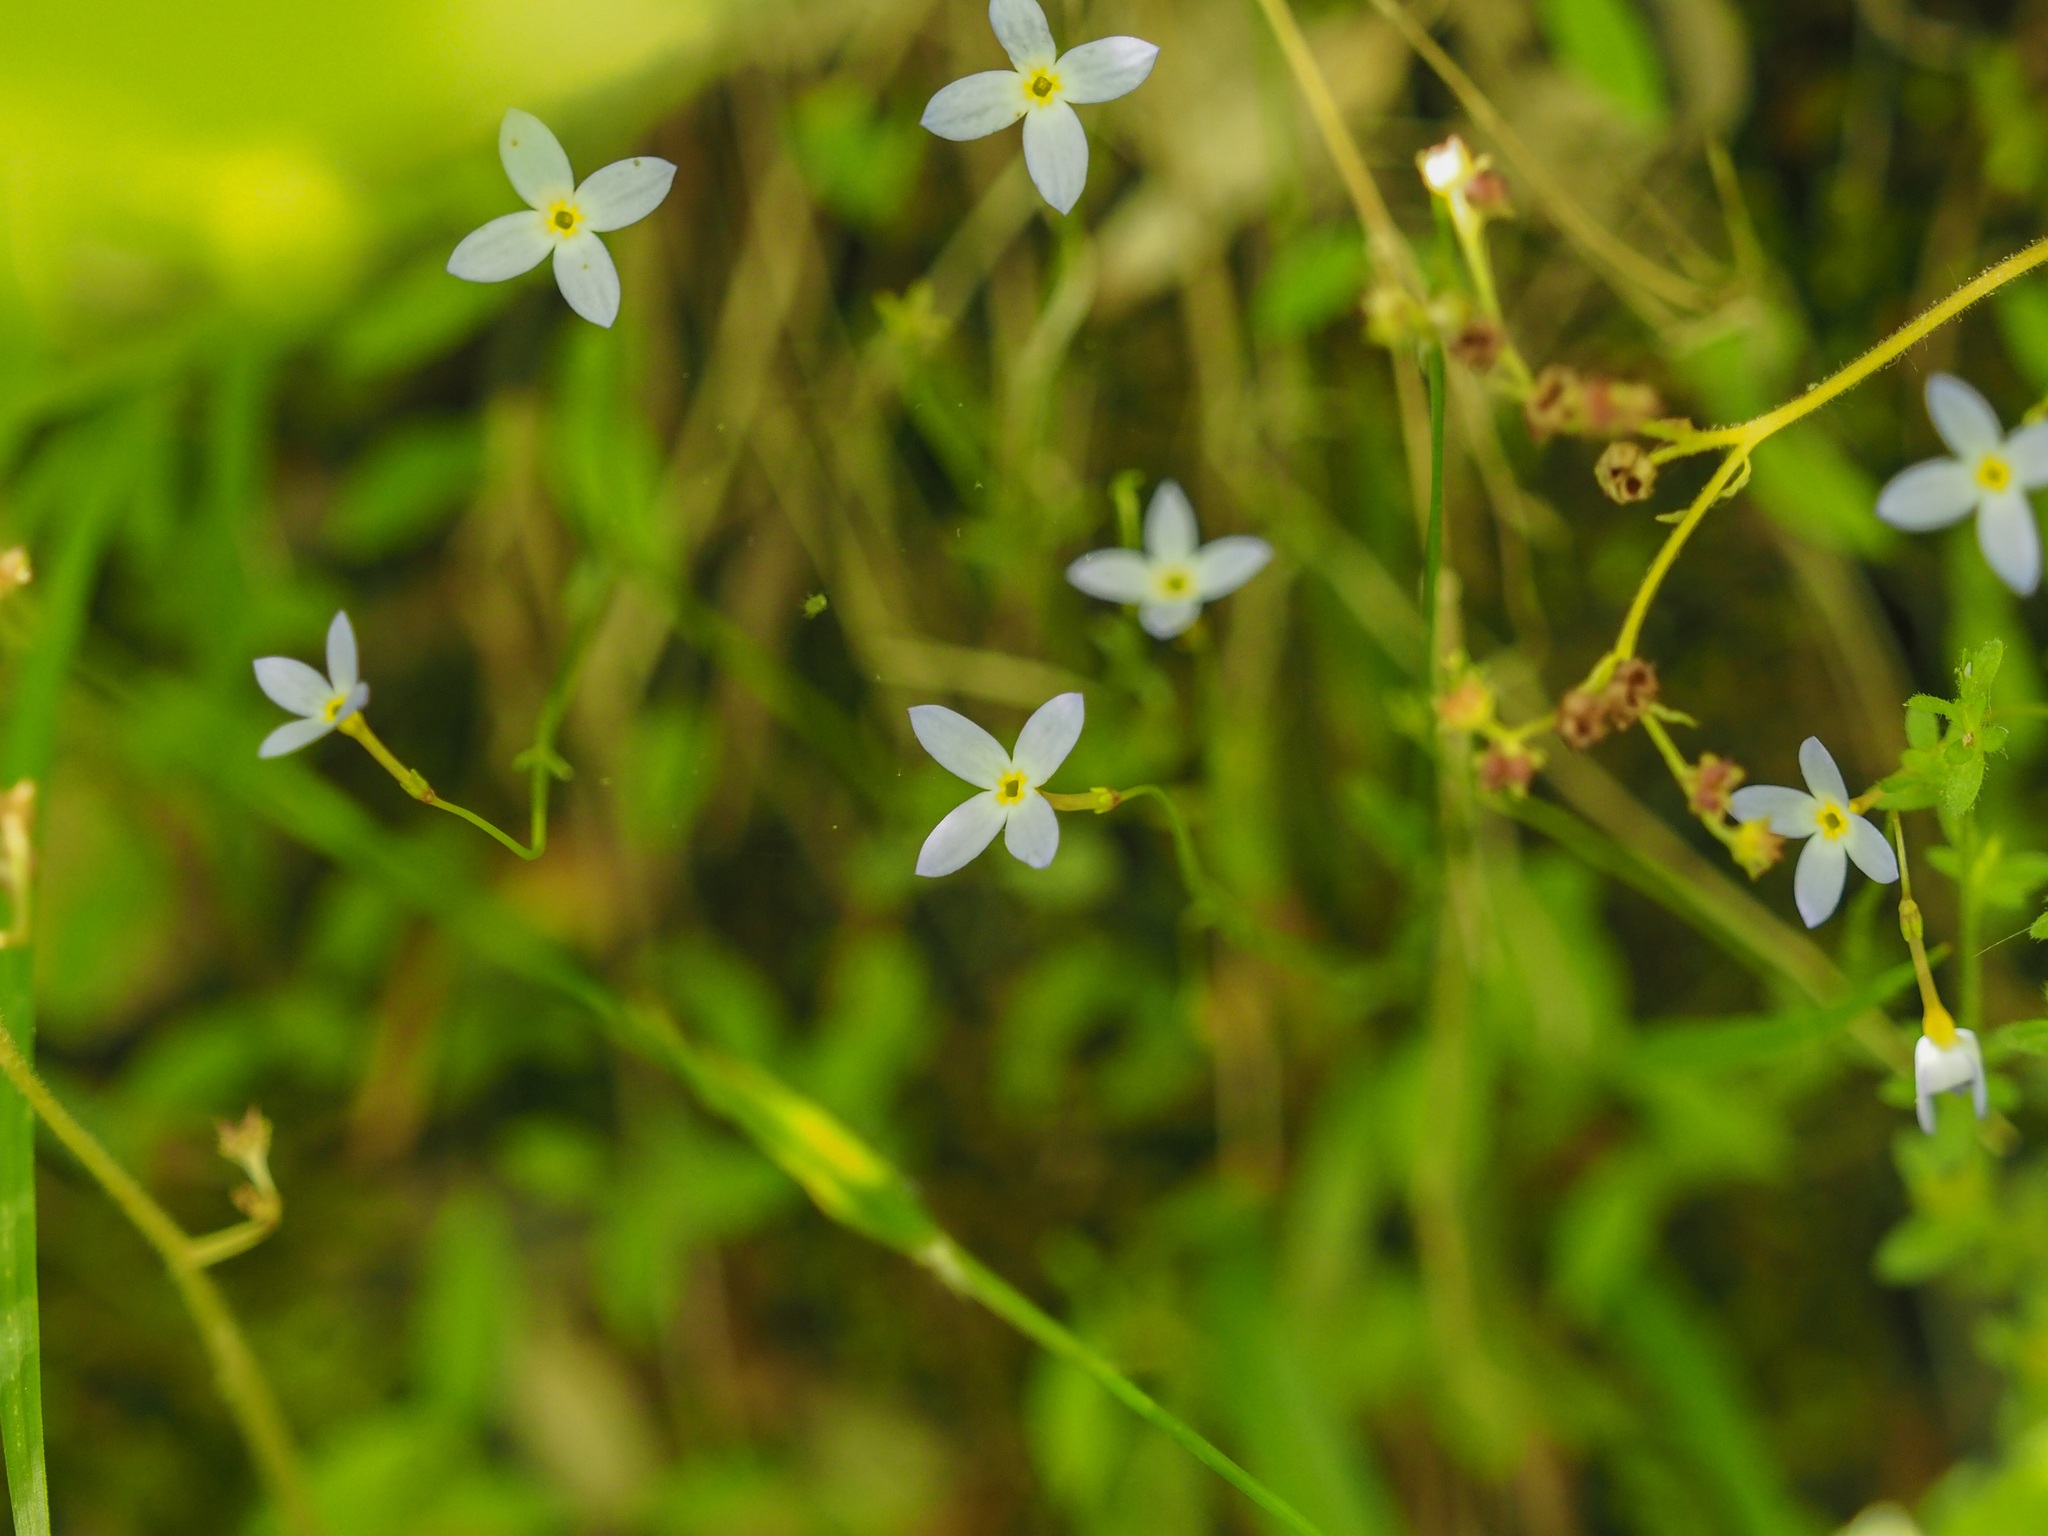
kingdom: Plantae
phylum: Tracheophyta
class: Magnoliopsida
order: Gentianales
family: Rubiaceae
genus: Houstonia
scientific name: Houstonia caerulea
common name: Bluets
